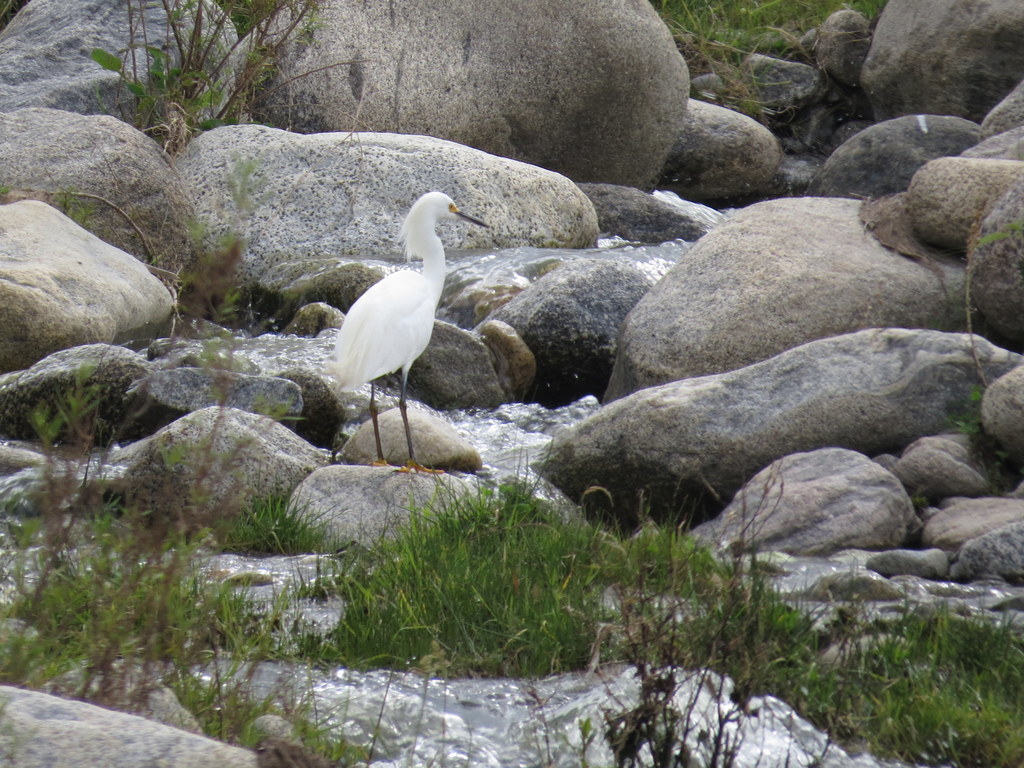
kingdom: Animalia
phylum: Chordata
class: Aves
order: Pelecaniformes
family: Ardeidae
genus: Egretta
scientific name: Egretta thula
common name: Snowy egret
